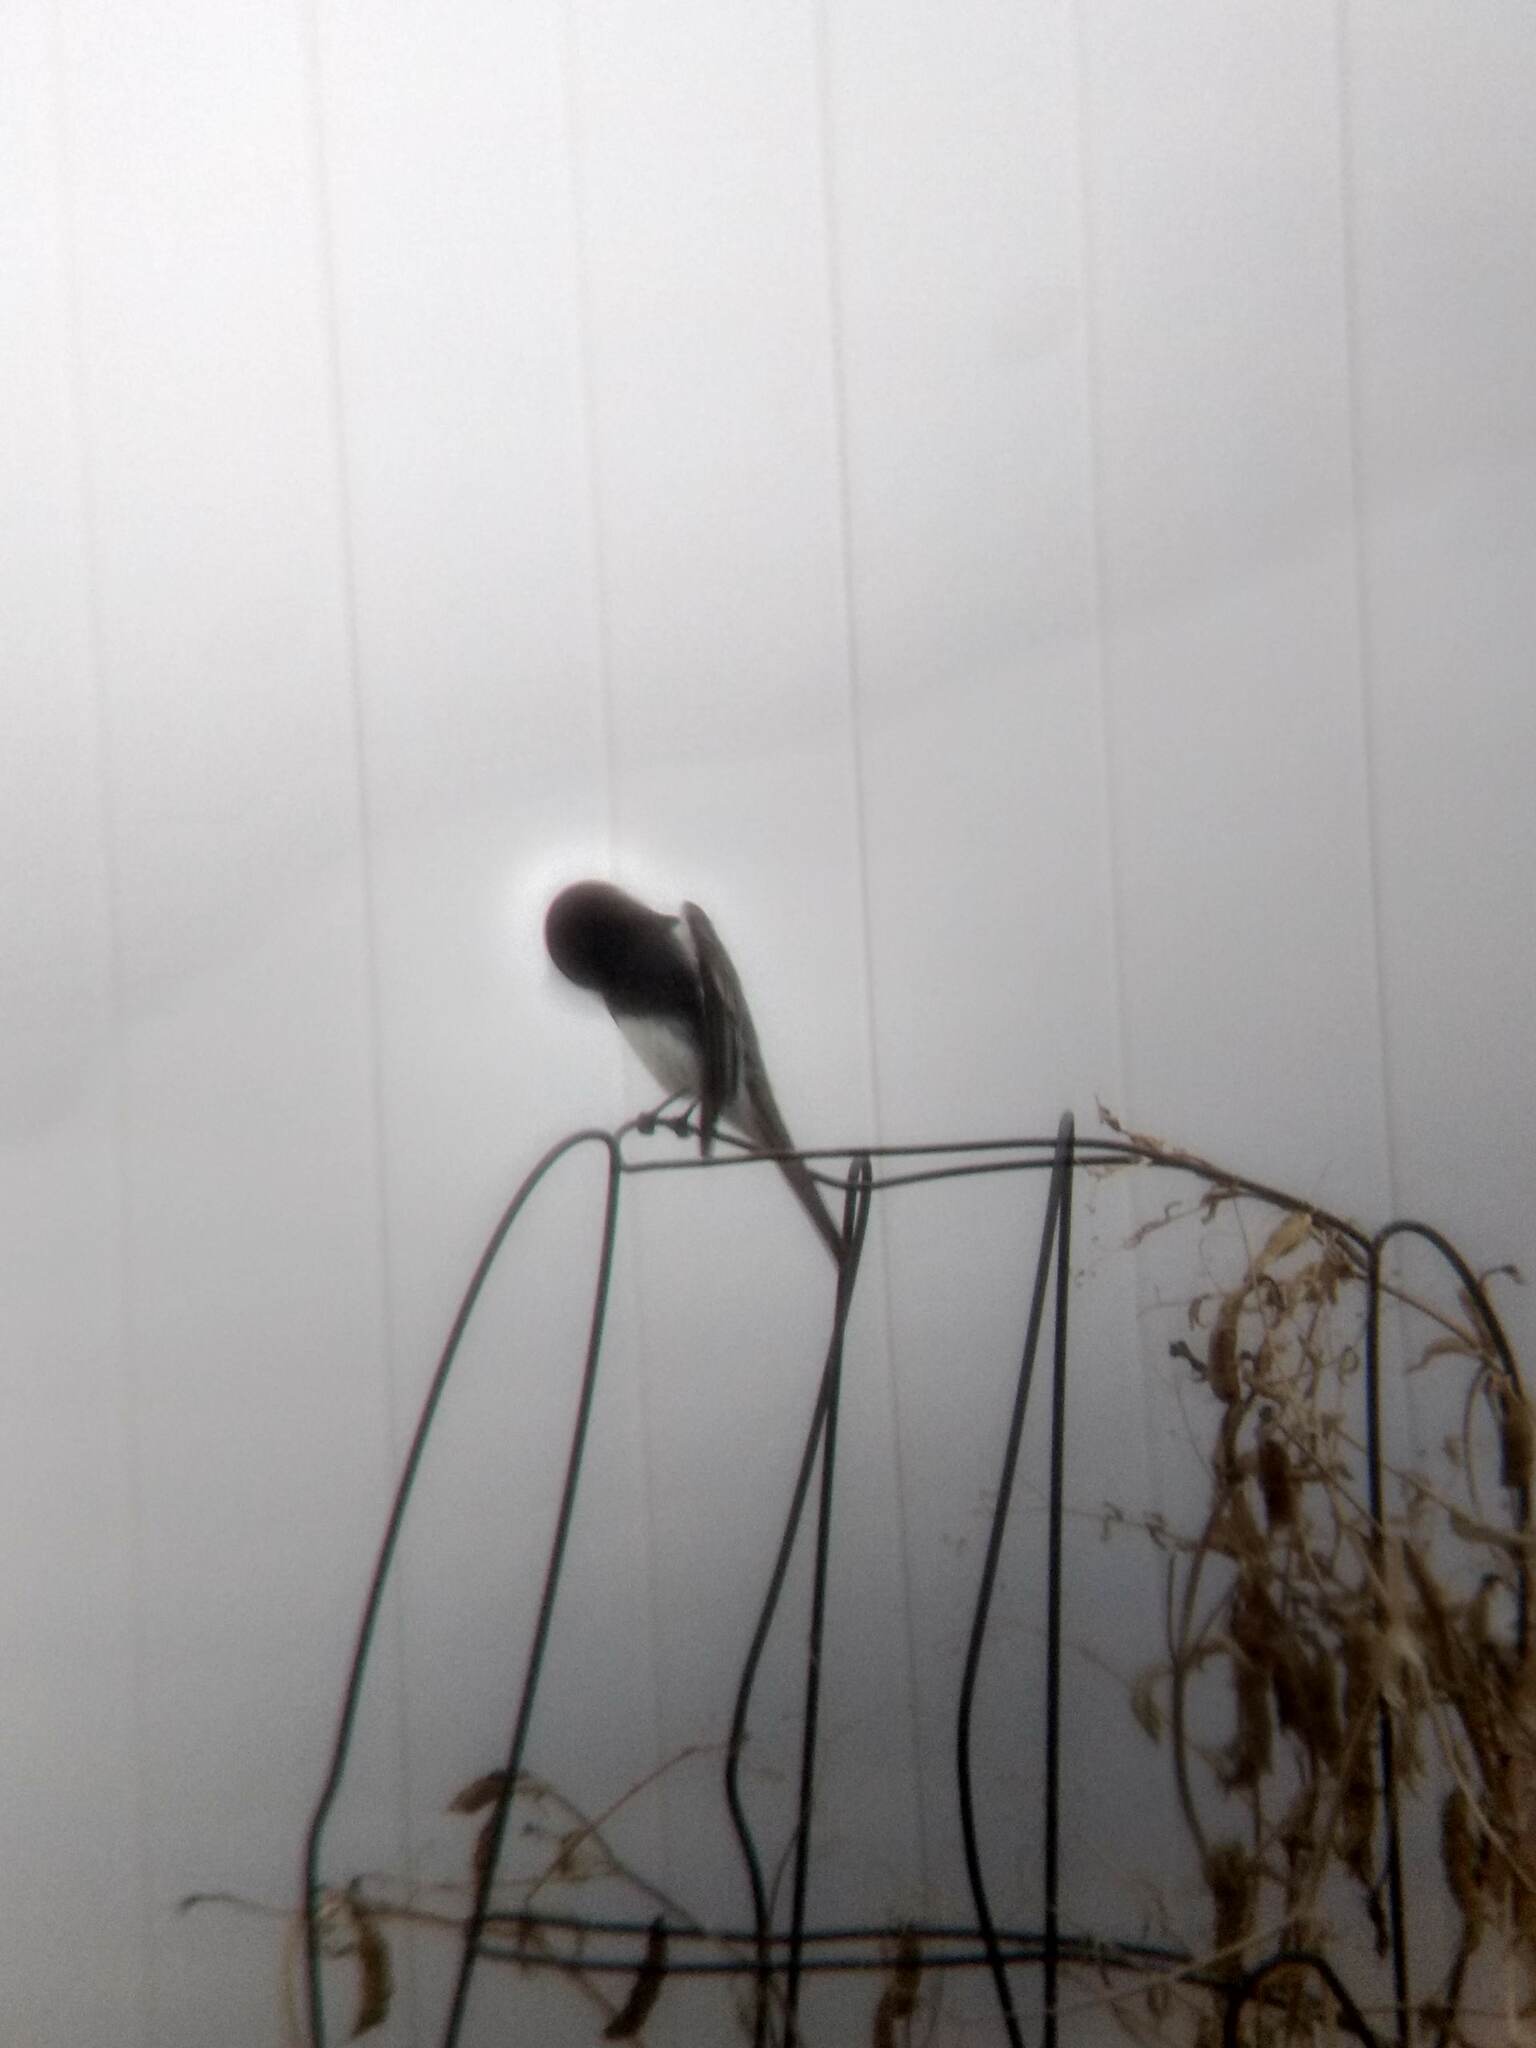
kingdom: Animalia
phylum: Chordata
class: Aves
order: Passeriformes
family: Tyrannidae
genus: Sayornis
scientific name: Sayornis nigricans
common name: Black phoebe
